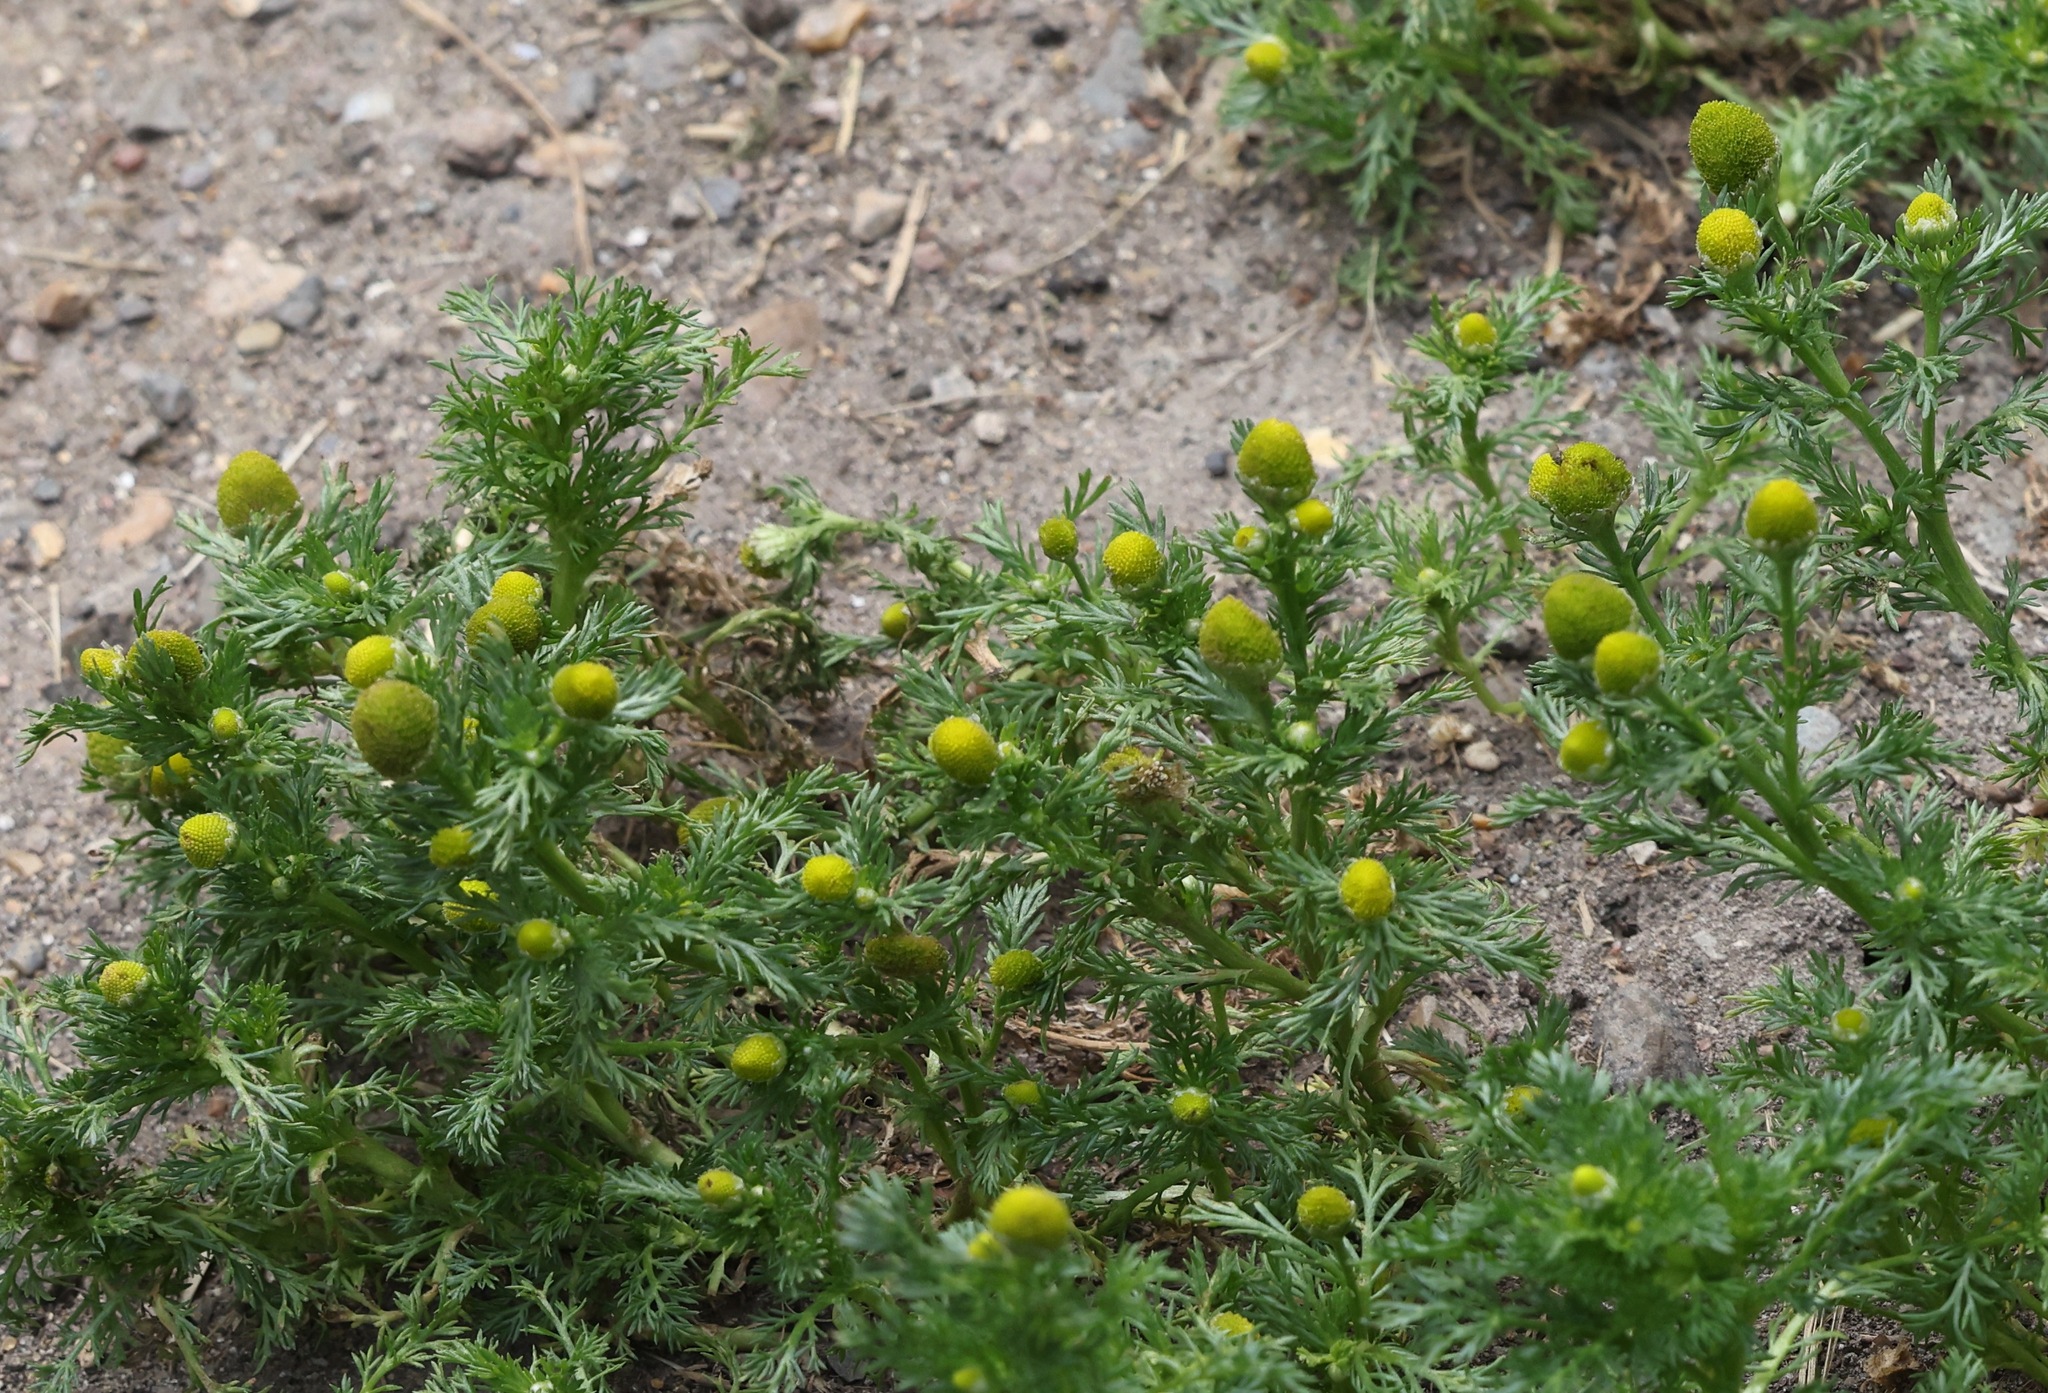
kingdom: Plantae
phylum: Tracheophyta
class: Magnoliopsida
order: Asterales
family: Asteraceae
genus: Matricaria
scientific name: Matricaria discoidea
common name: Disc mayweed
